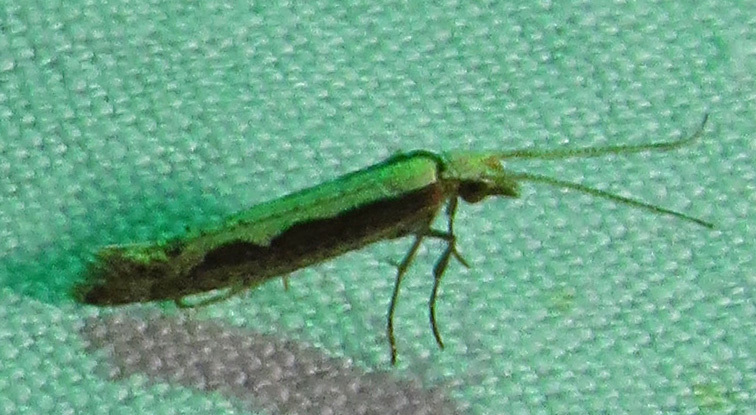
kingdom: Animalia
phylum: Arthropoda
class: Insecta
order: Lepidoptera
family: Plutellidae
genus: Plutella
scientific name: Plutella xylostella
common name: Diamond-back moth
